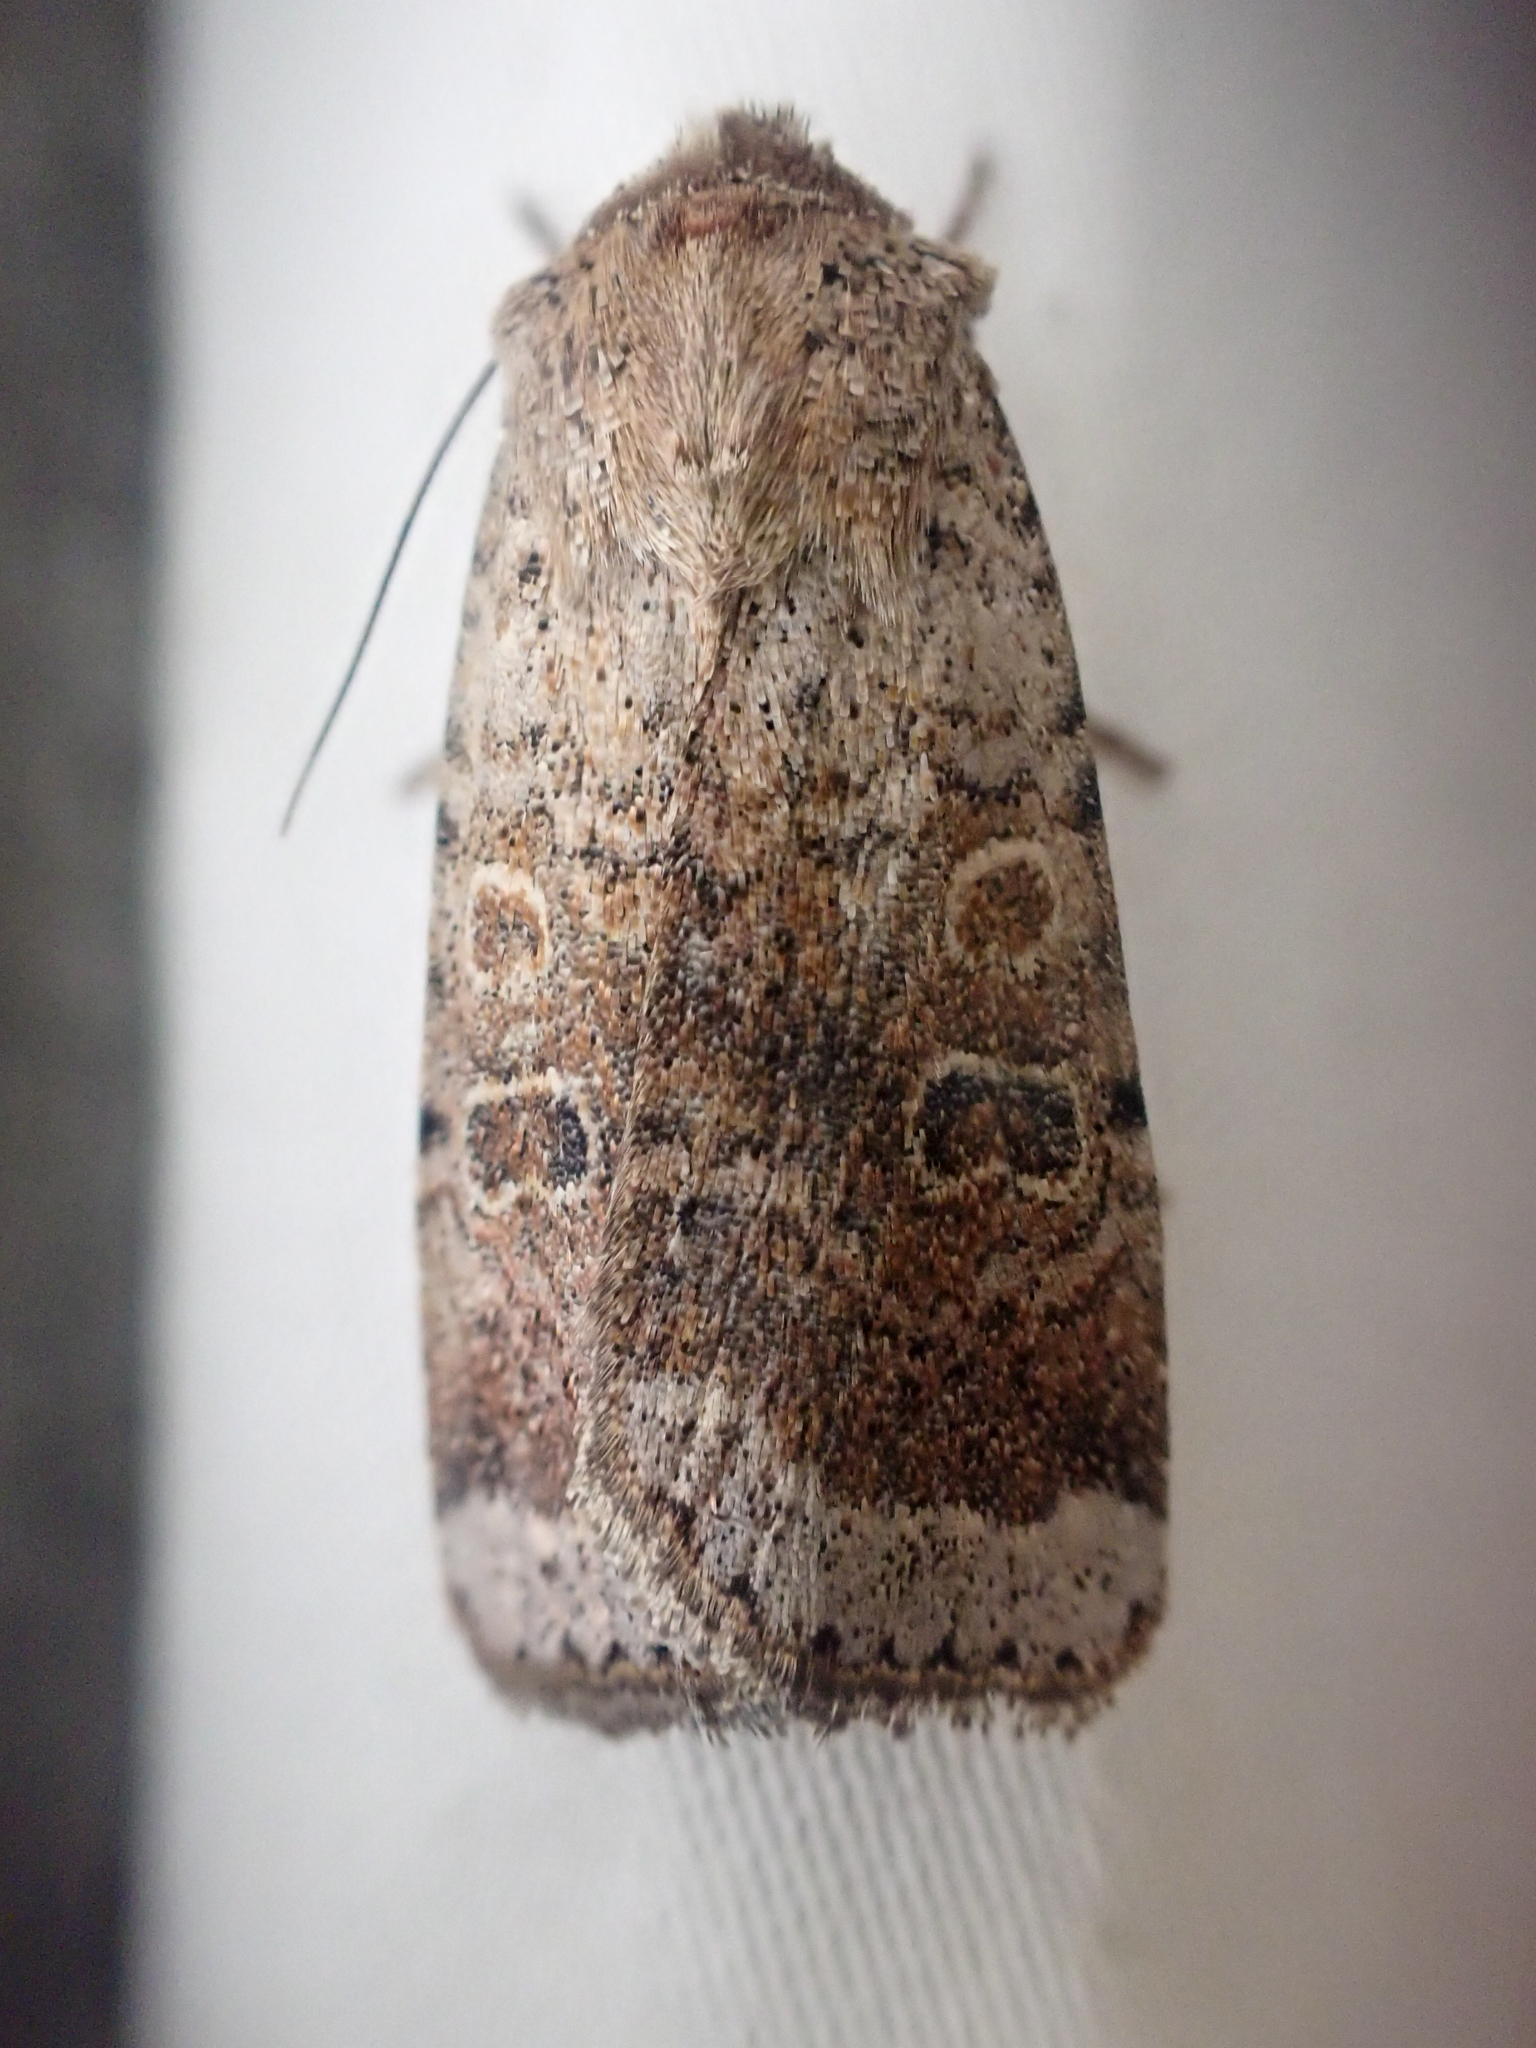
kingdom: Animalia
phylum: Arthropoda
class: Insecta
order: Lepidoptera
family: Noctuidae
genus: Abagrotis
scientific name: Abagrotis scopeops
